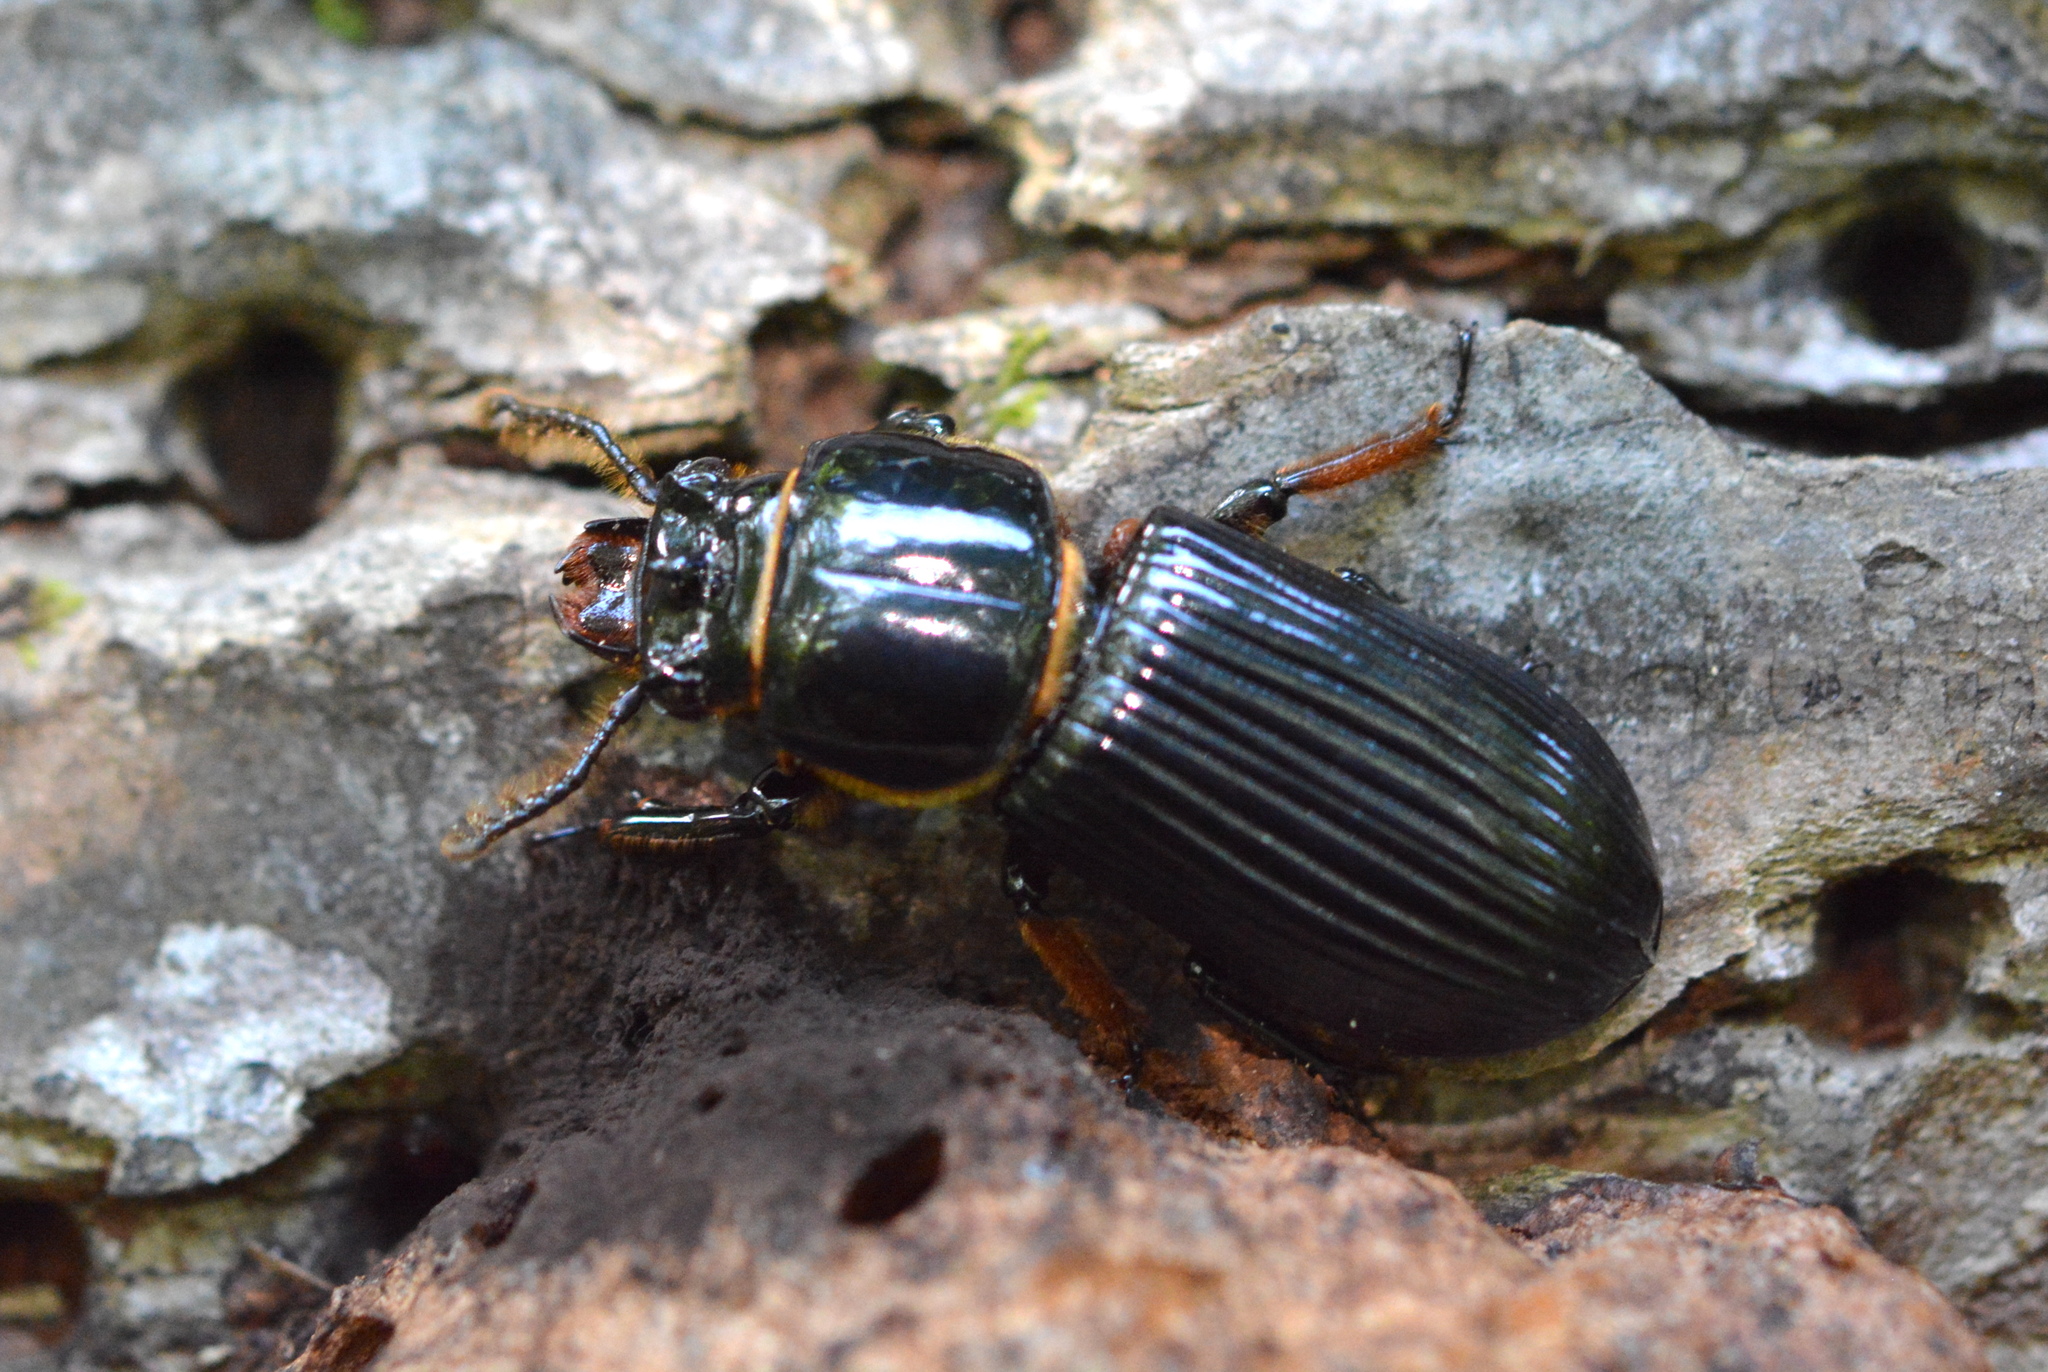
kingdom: Animalia
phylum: Arthropoda
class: Insecta
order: Coleoptera
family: Passalidae
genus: Odontotaenius
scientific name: Odontotaenius disjunctus
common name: Patent leather beetle
